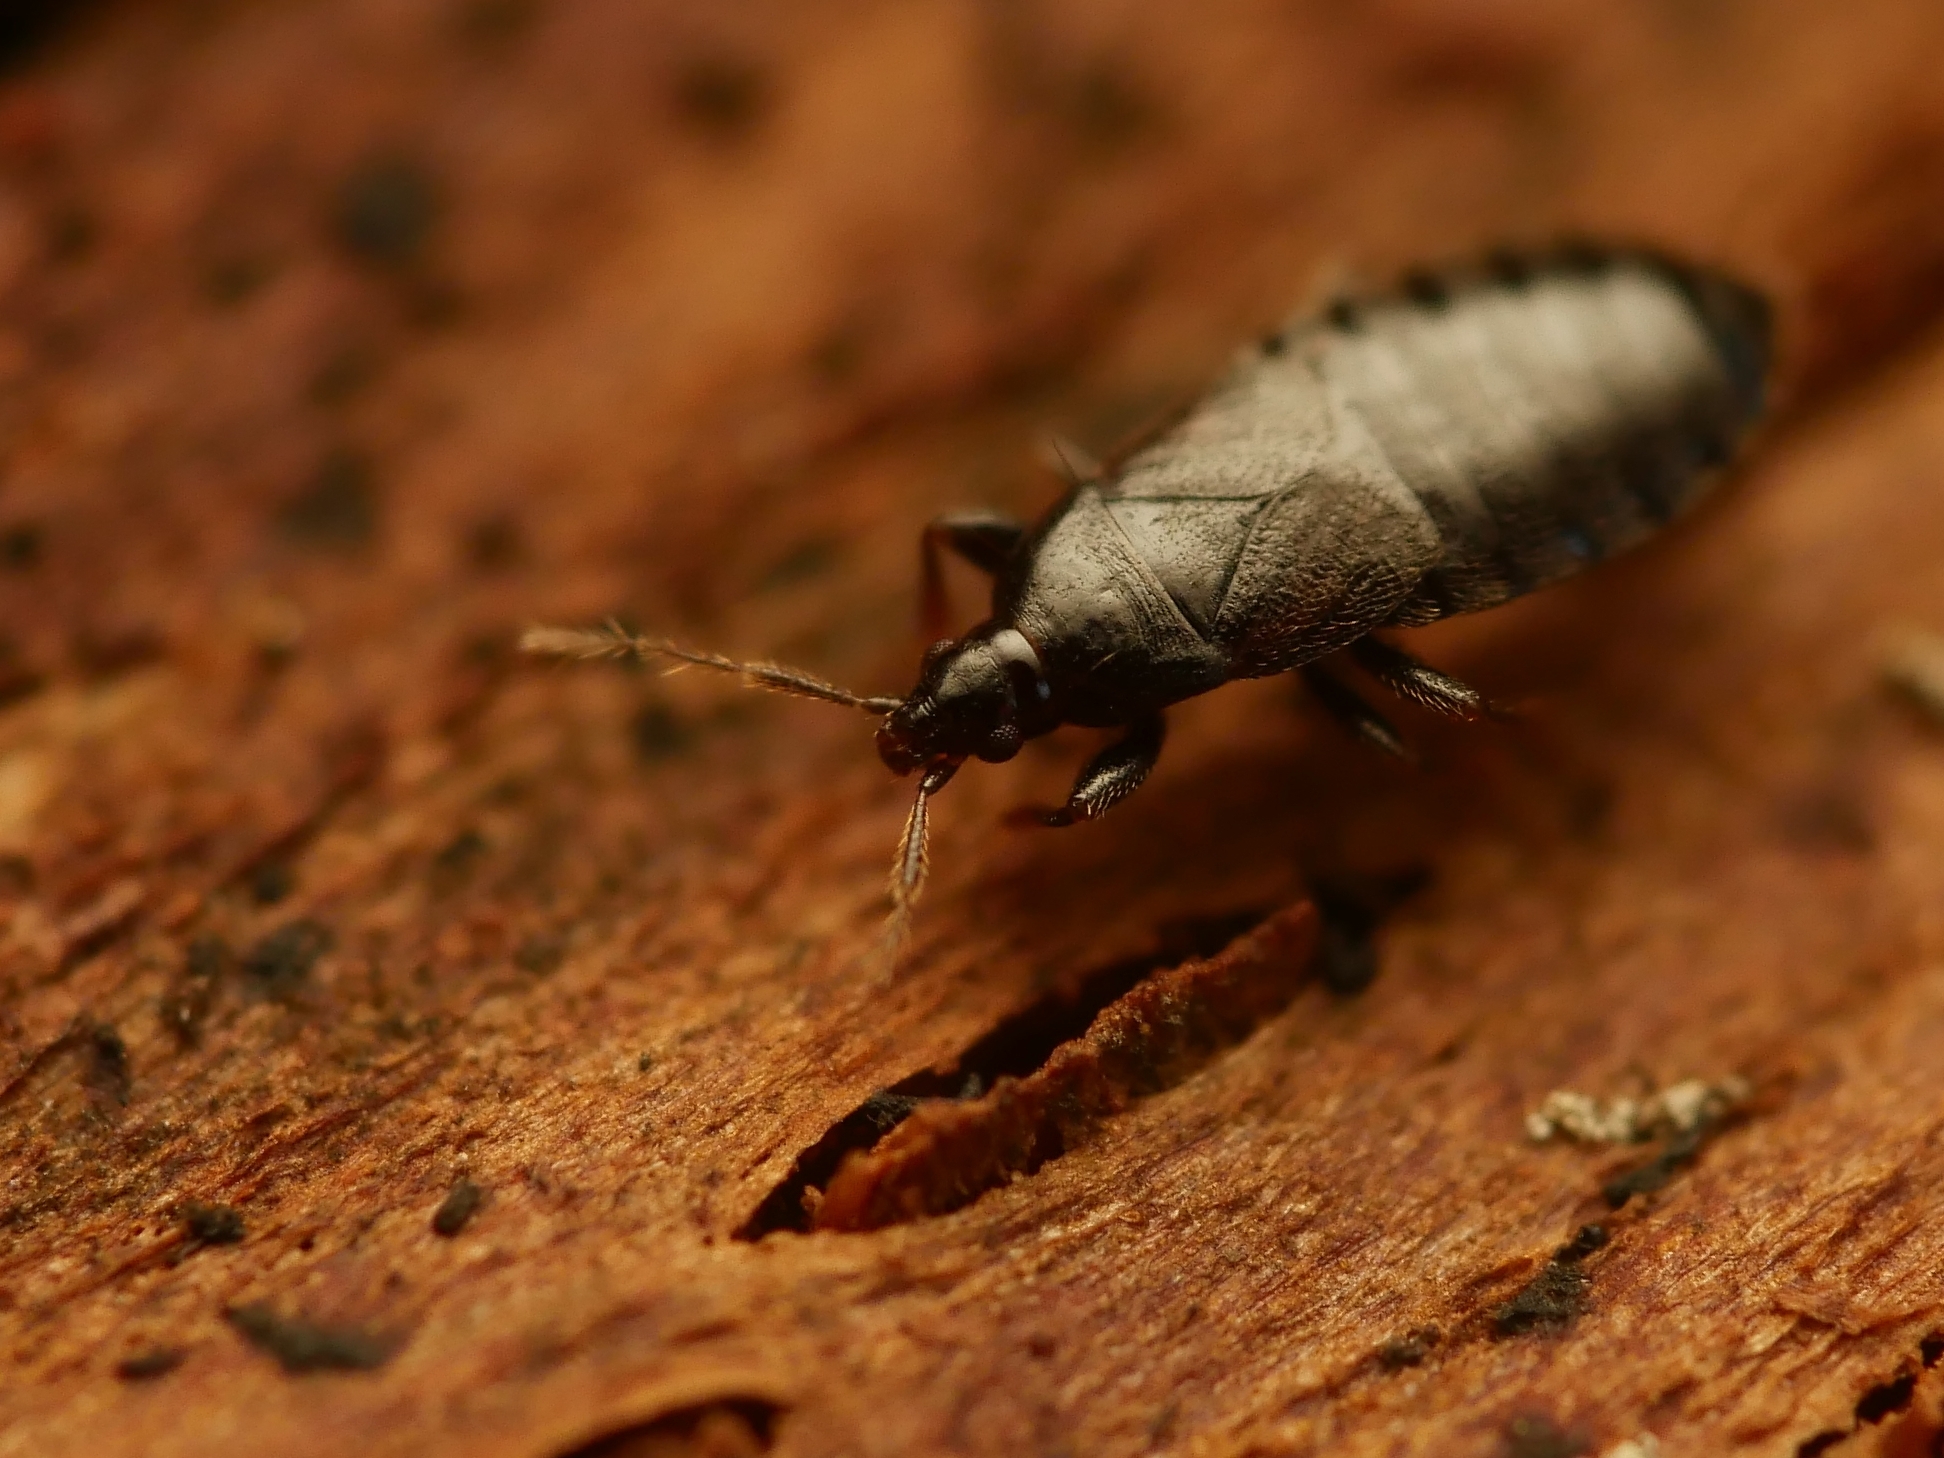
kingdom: Animalia
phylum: Arthropoda
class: Insecta
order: Hemiptera
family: Anthocoridae
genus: Xylocoris
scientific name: Xylocoris cursitans
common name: Minute pirate bug
